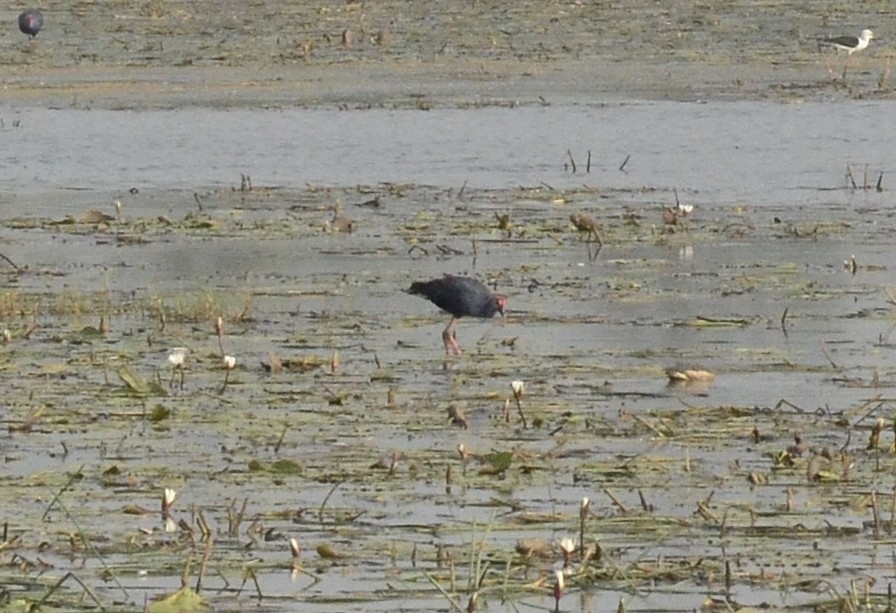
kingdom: Animalia
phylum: Chordata
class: Aves
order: Gruiformes
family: Rallidae
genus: Porphyrio
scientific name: Porphyrio porphyrio
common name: Purple swamphen
